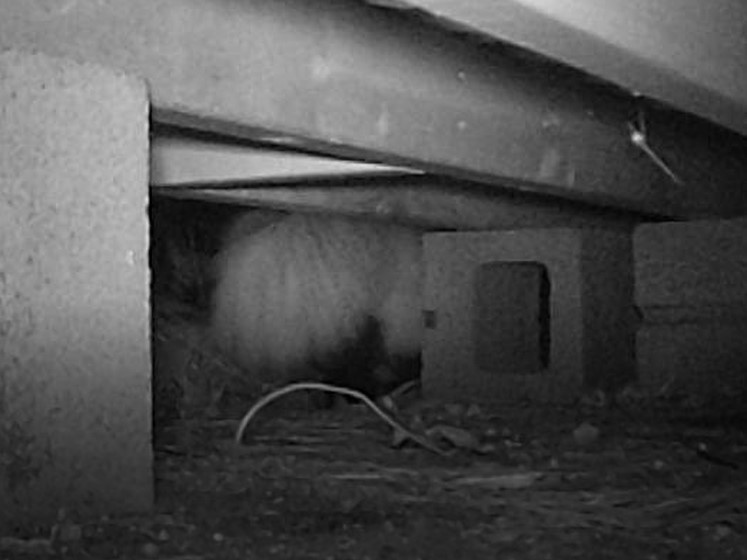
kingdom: Animalia
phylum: Chordata
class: Mammalia
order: Carnivora
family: Mephitidae
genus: Mephitis
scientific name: Mephitis mephitis
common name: Striped skunk
